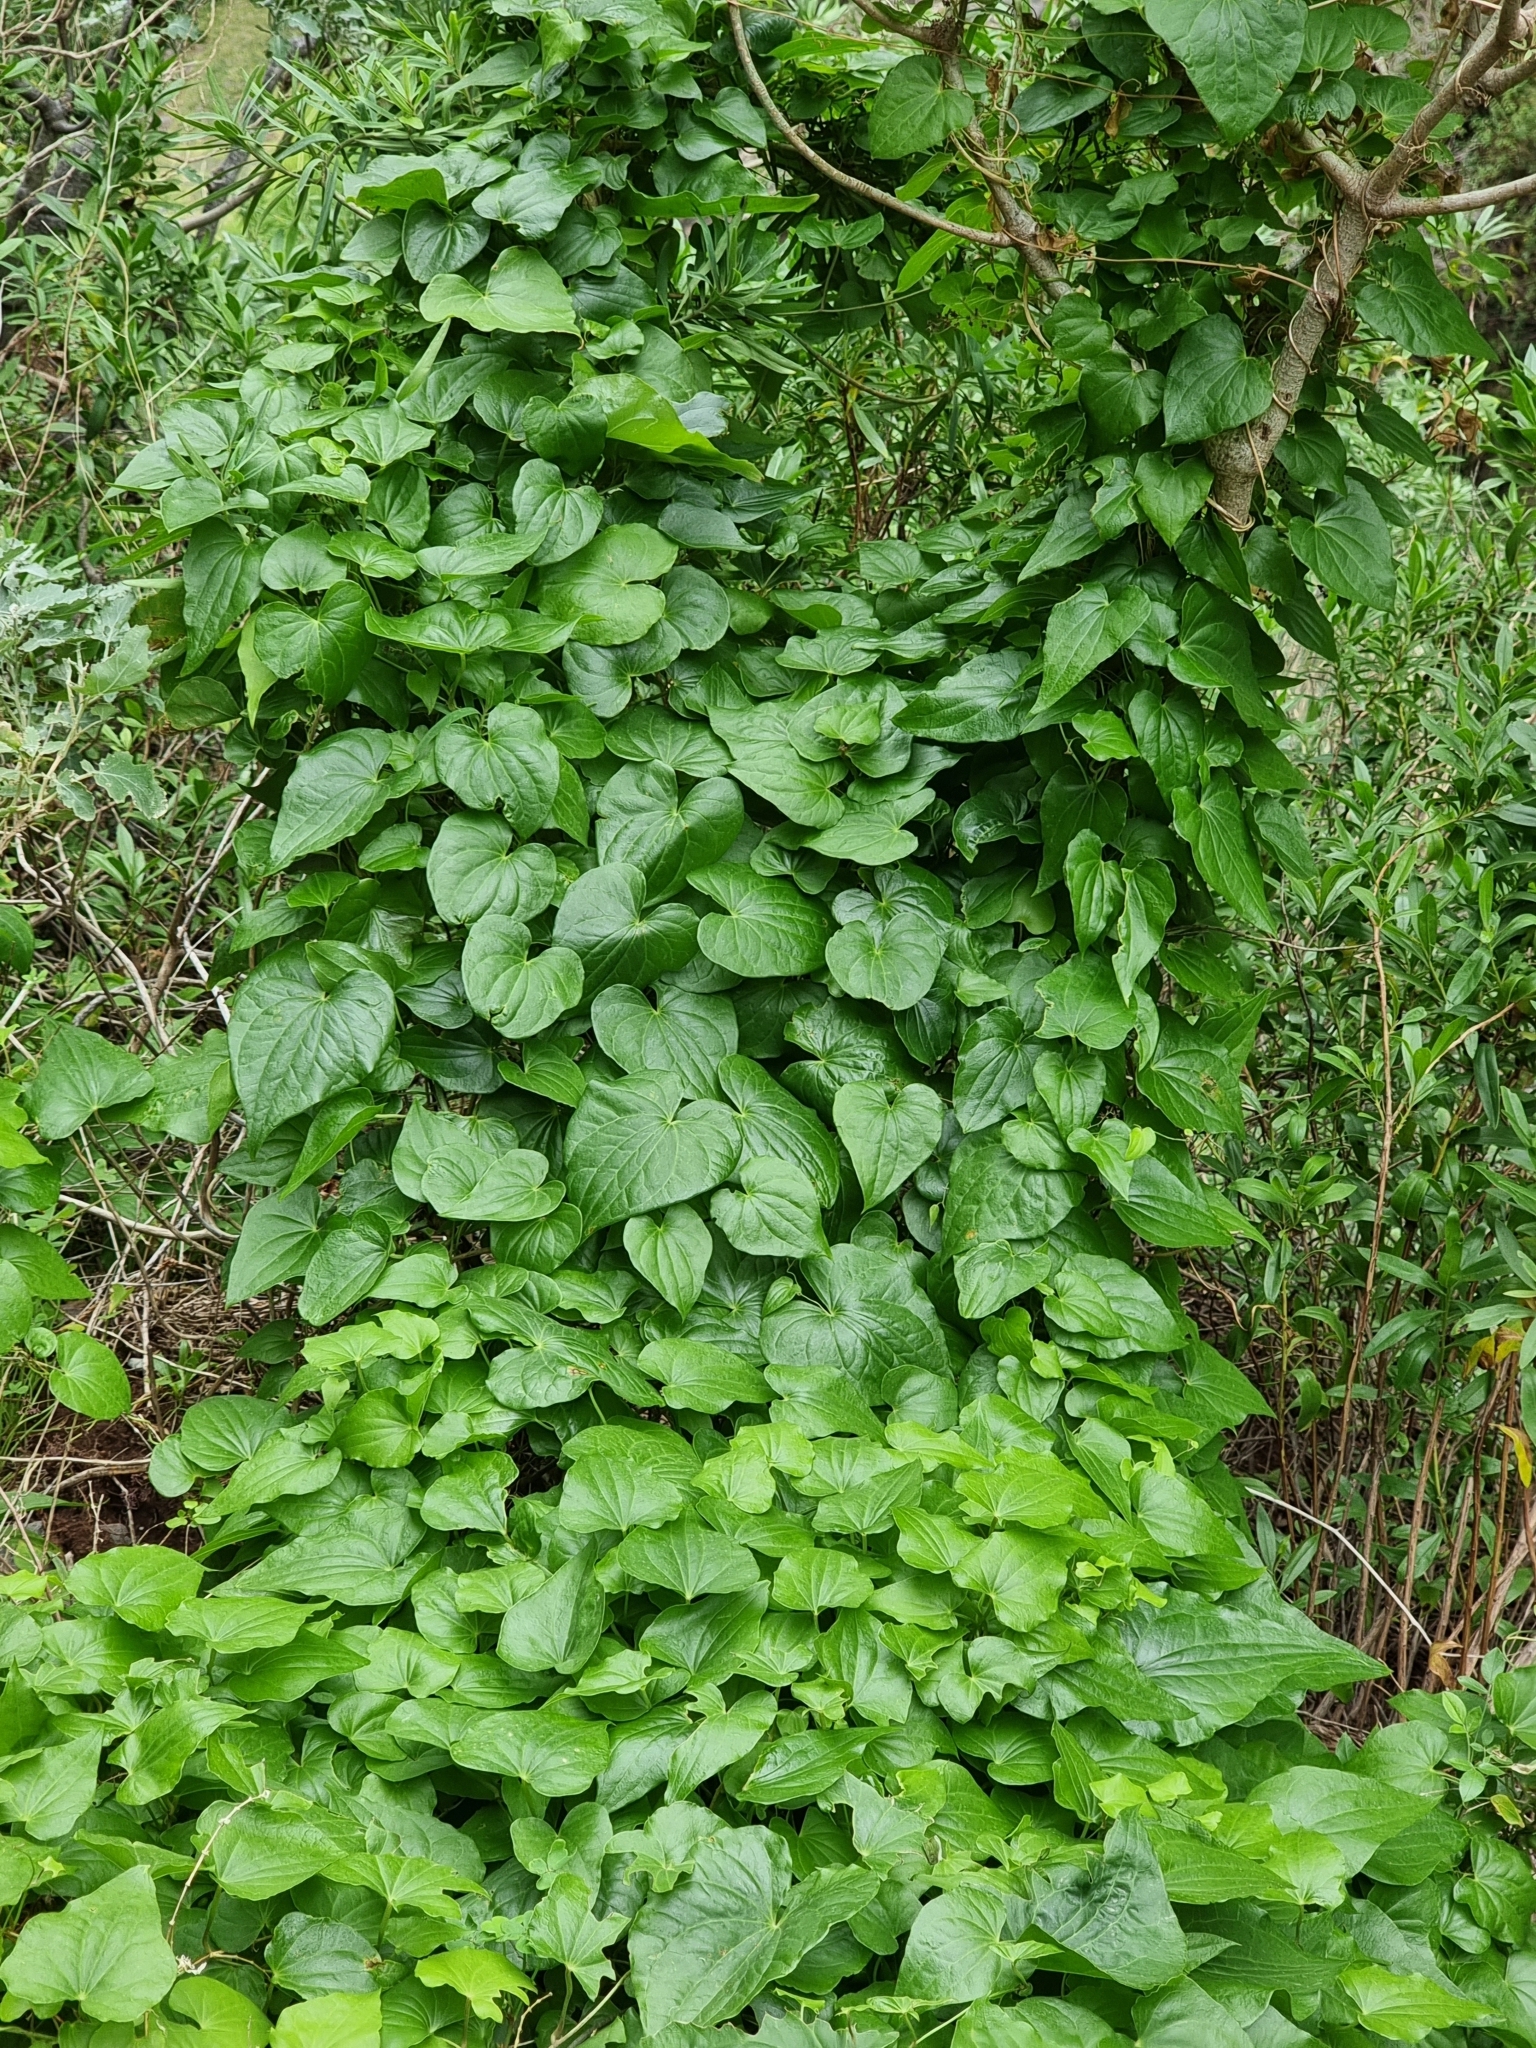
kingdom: Plantae
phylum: Tracheophyta
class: Liliopsida
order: Dioscoreales
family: Dioscoreaceae
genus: Dioscorea
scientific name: Dioscorea communis
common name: Black-bindweed
